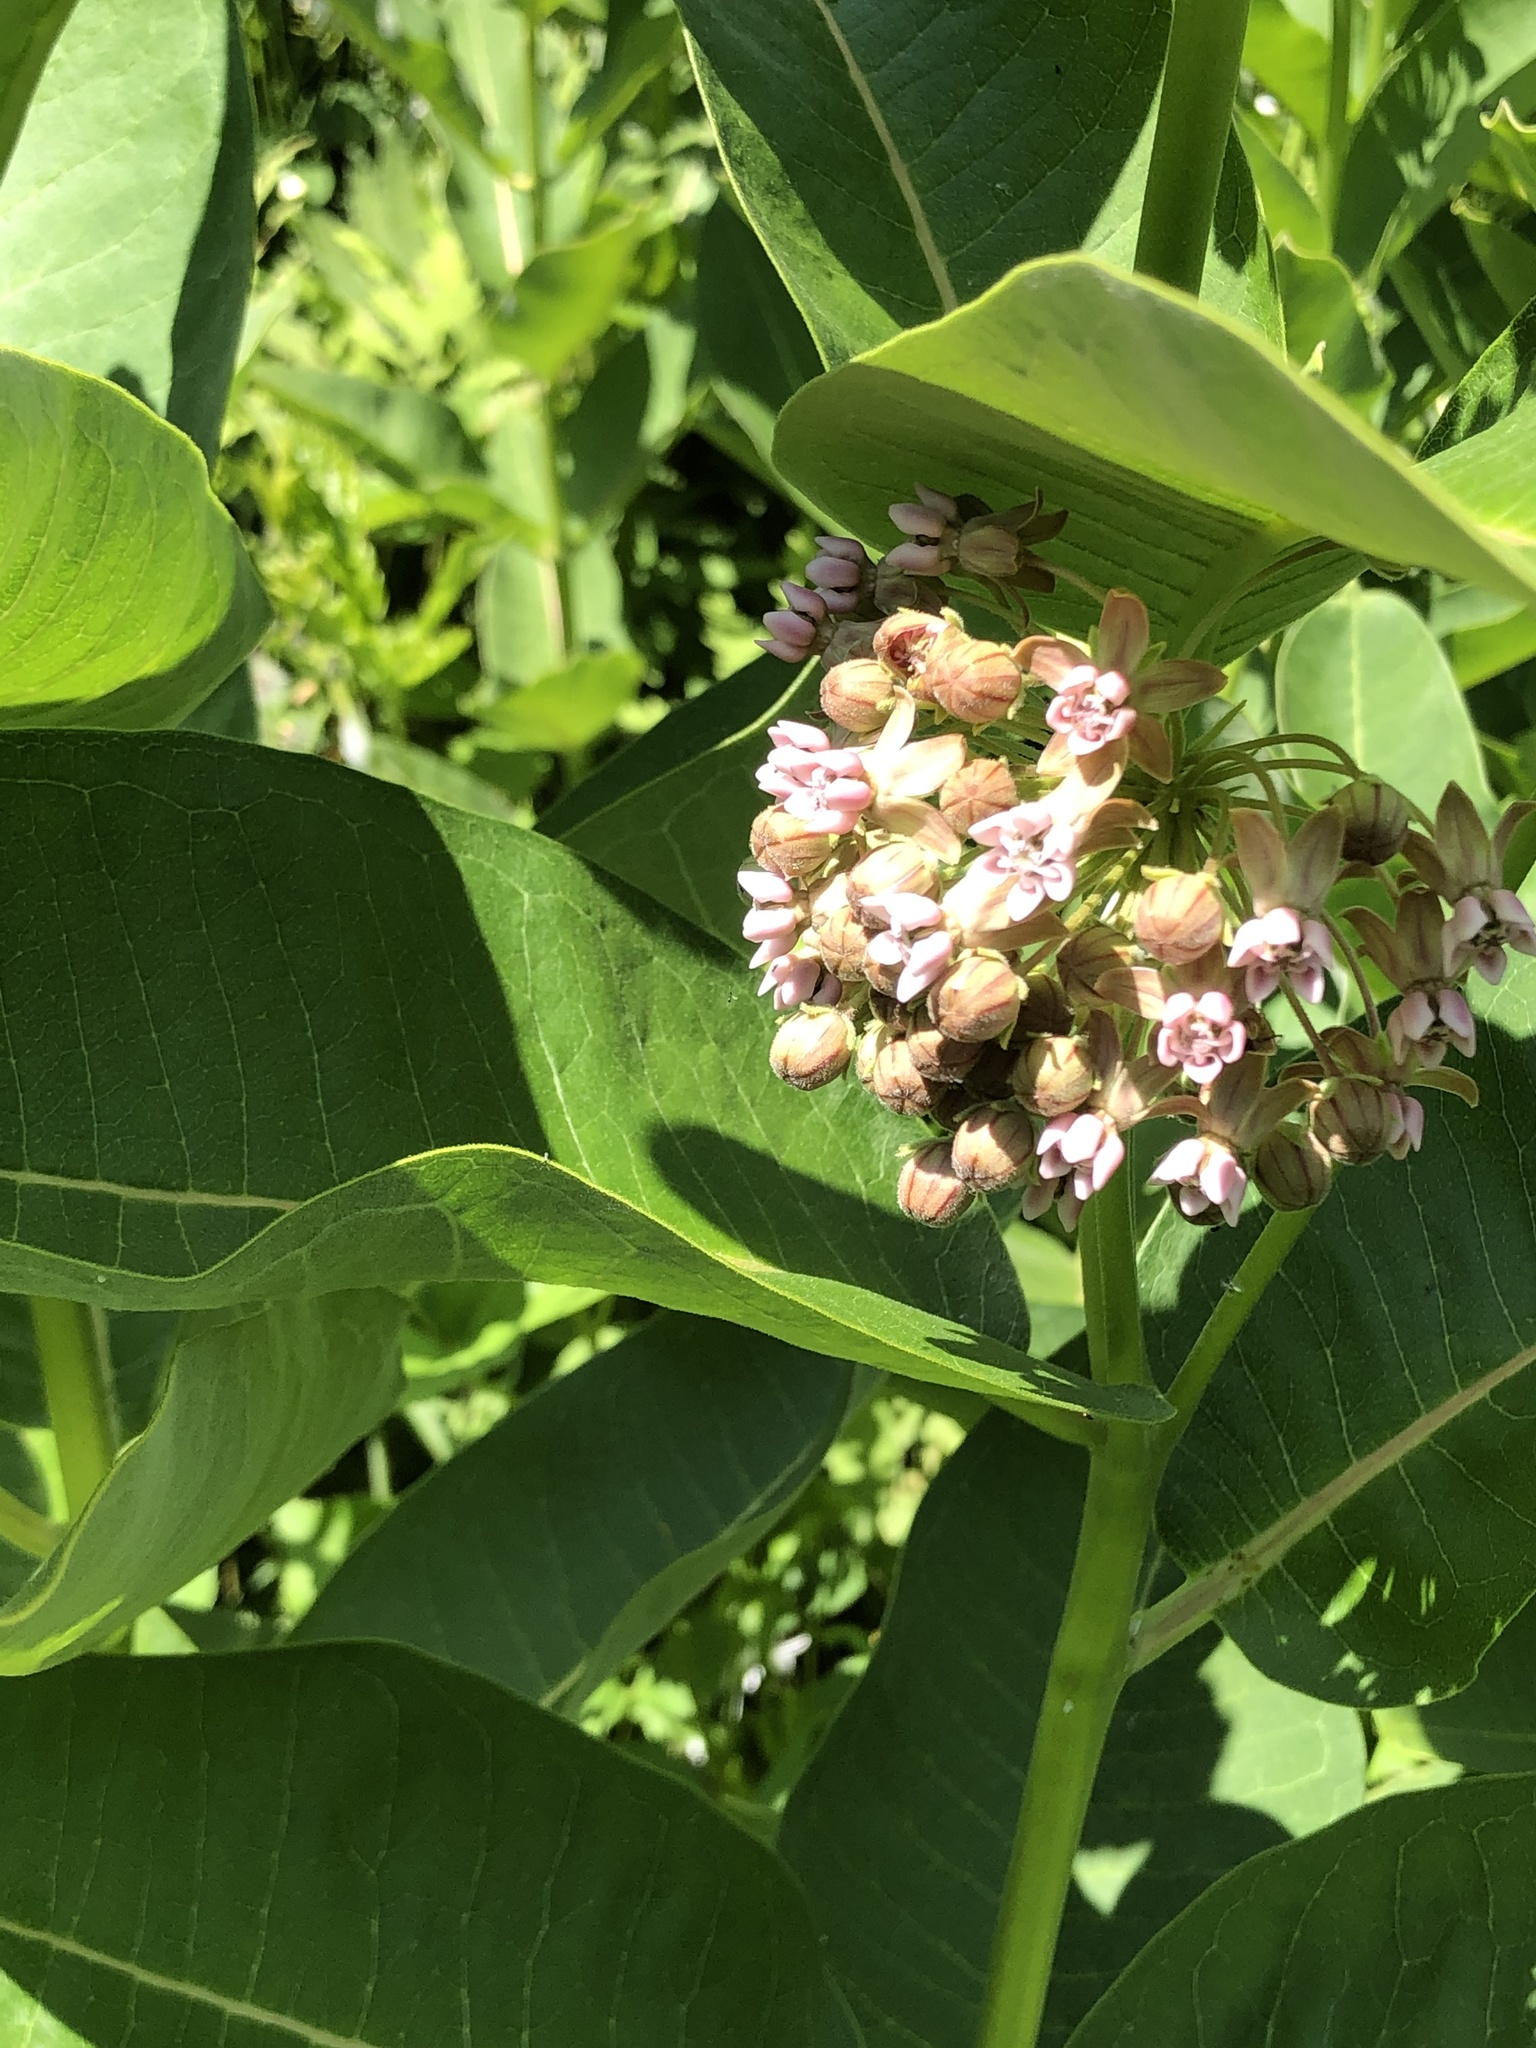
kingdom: Plantae
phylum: Tracheophyta
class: Magnoliopsida
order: Gentianales
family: Apocynaceae
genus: Asclepias
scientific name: Asclepias syriaca
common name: Common milkweed
